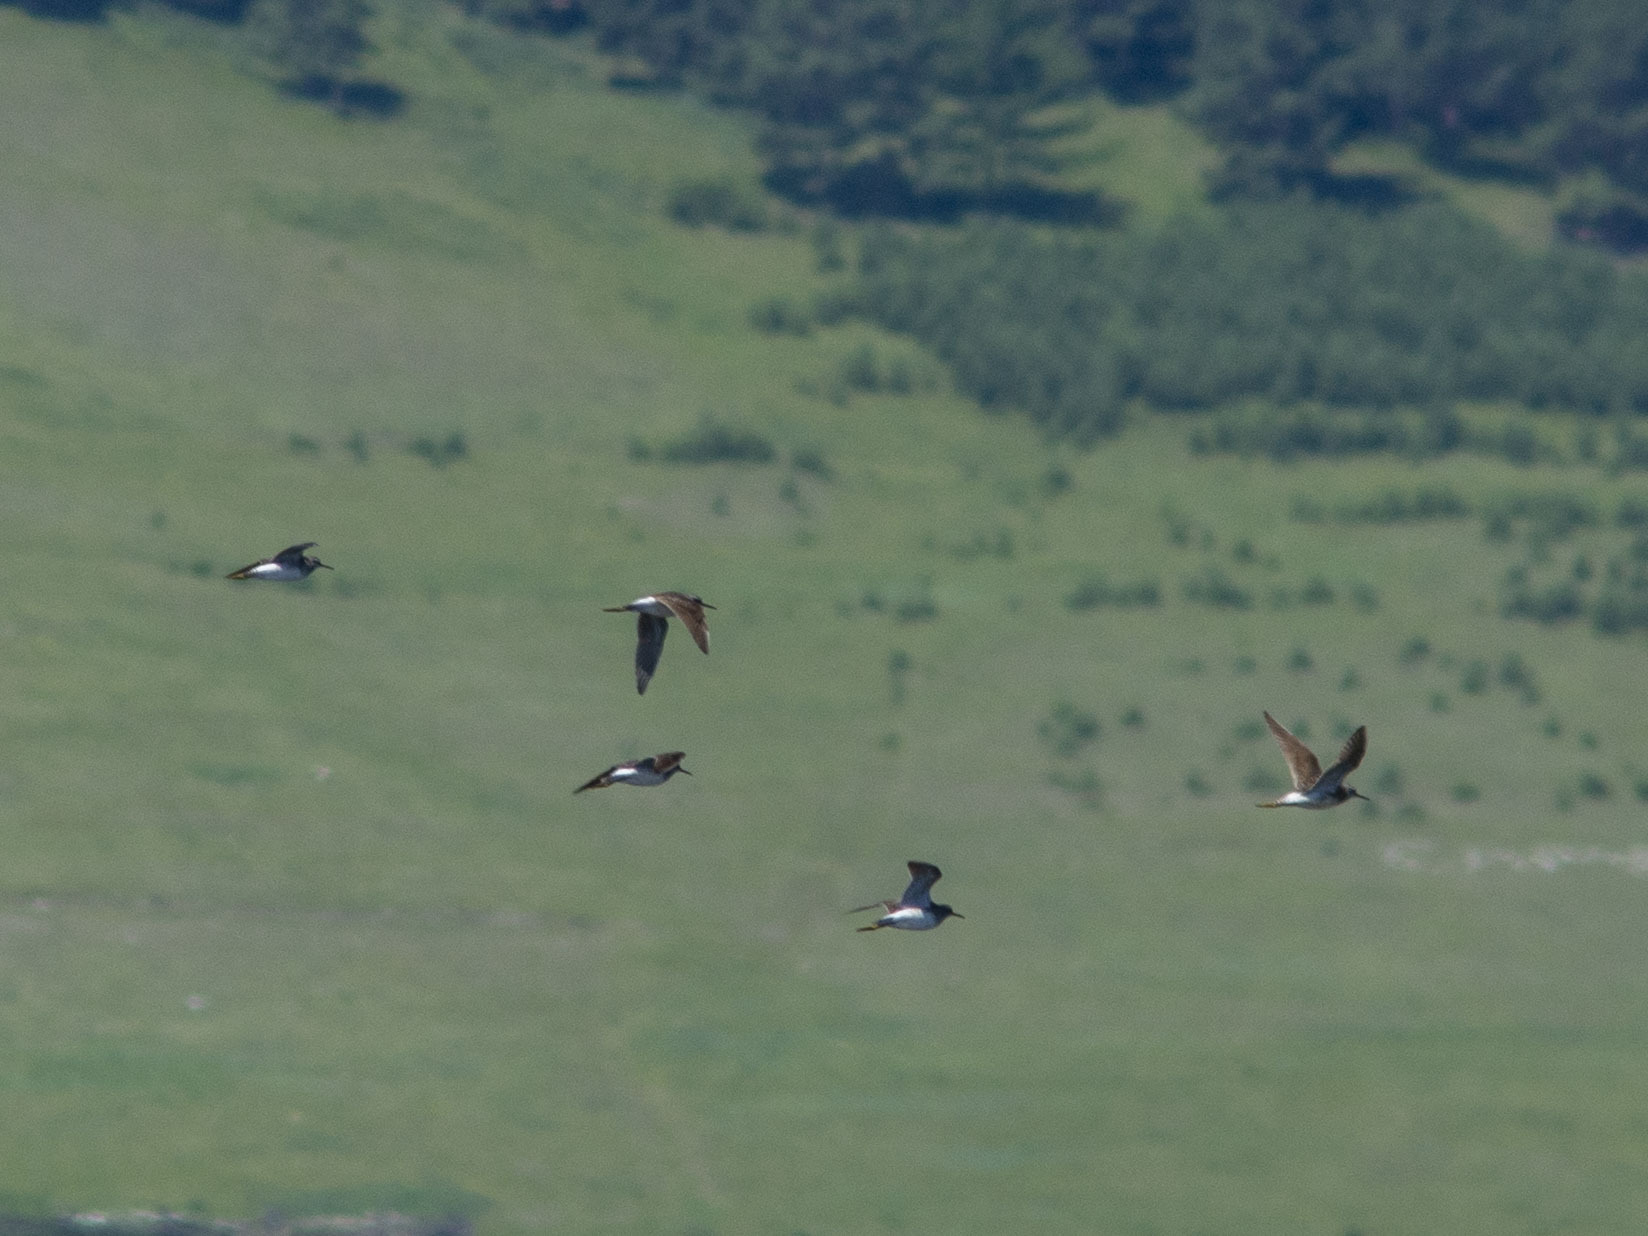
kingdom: Animalia
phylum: Chordata
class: Aves
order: Charadriiformes
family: Scolopacidae
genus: Tringa
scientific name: Tringa glareola
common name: Wood sandpiper
